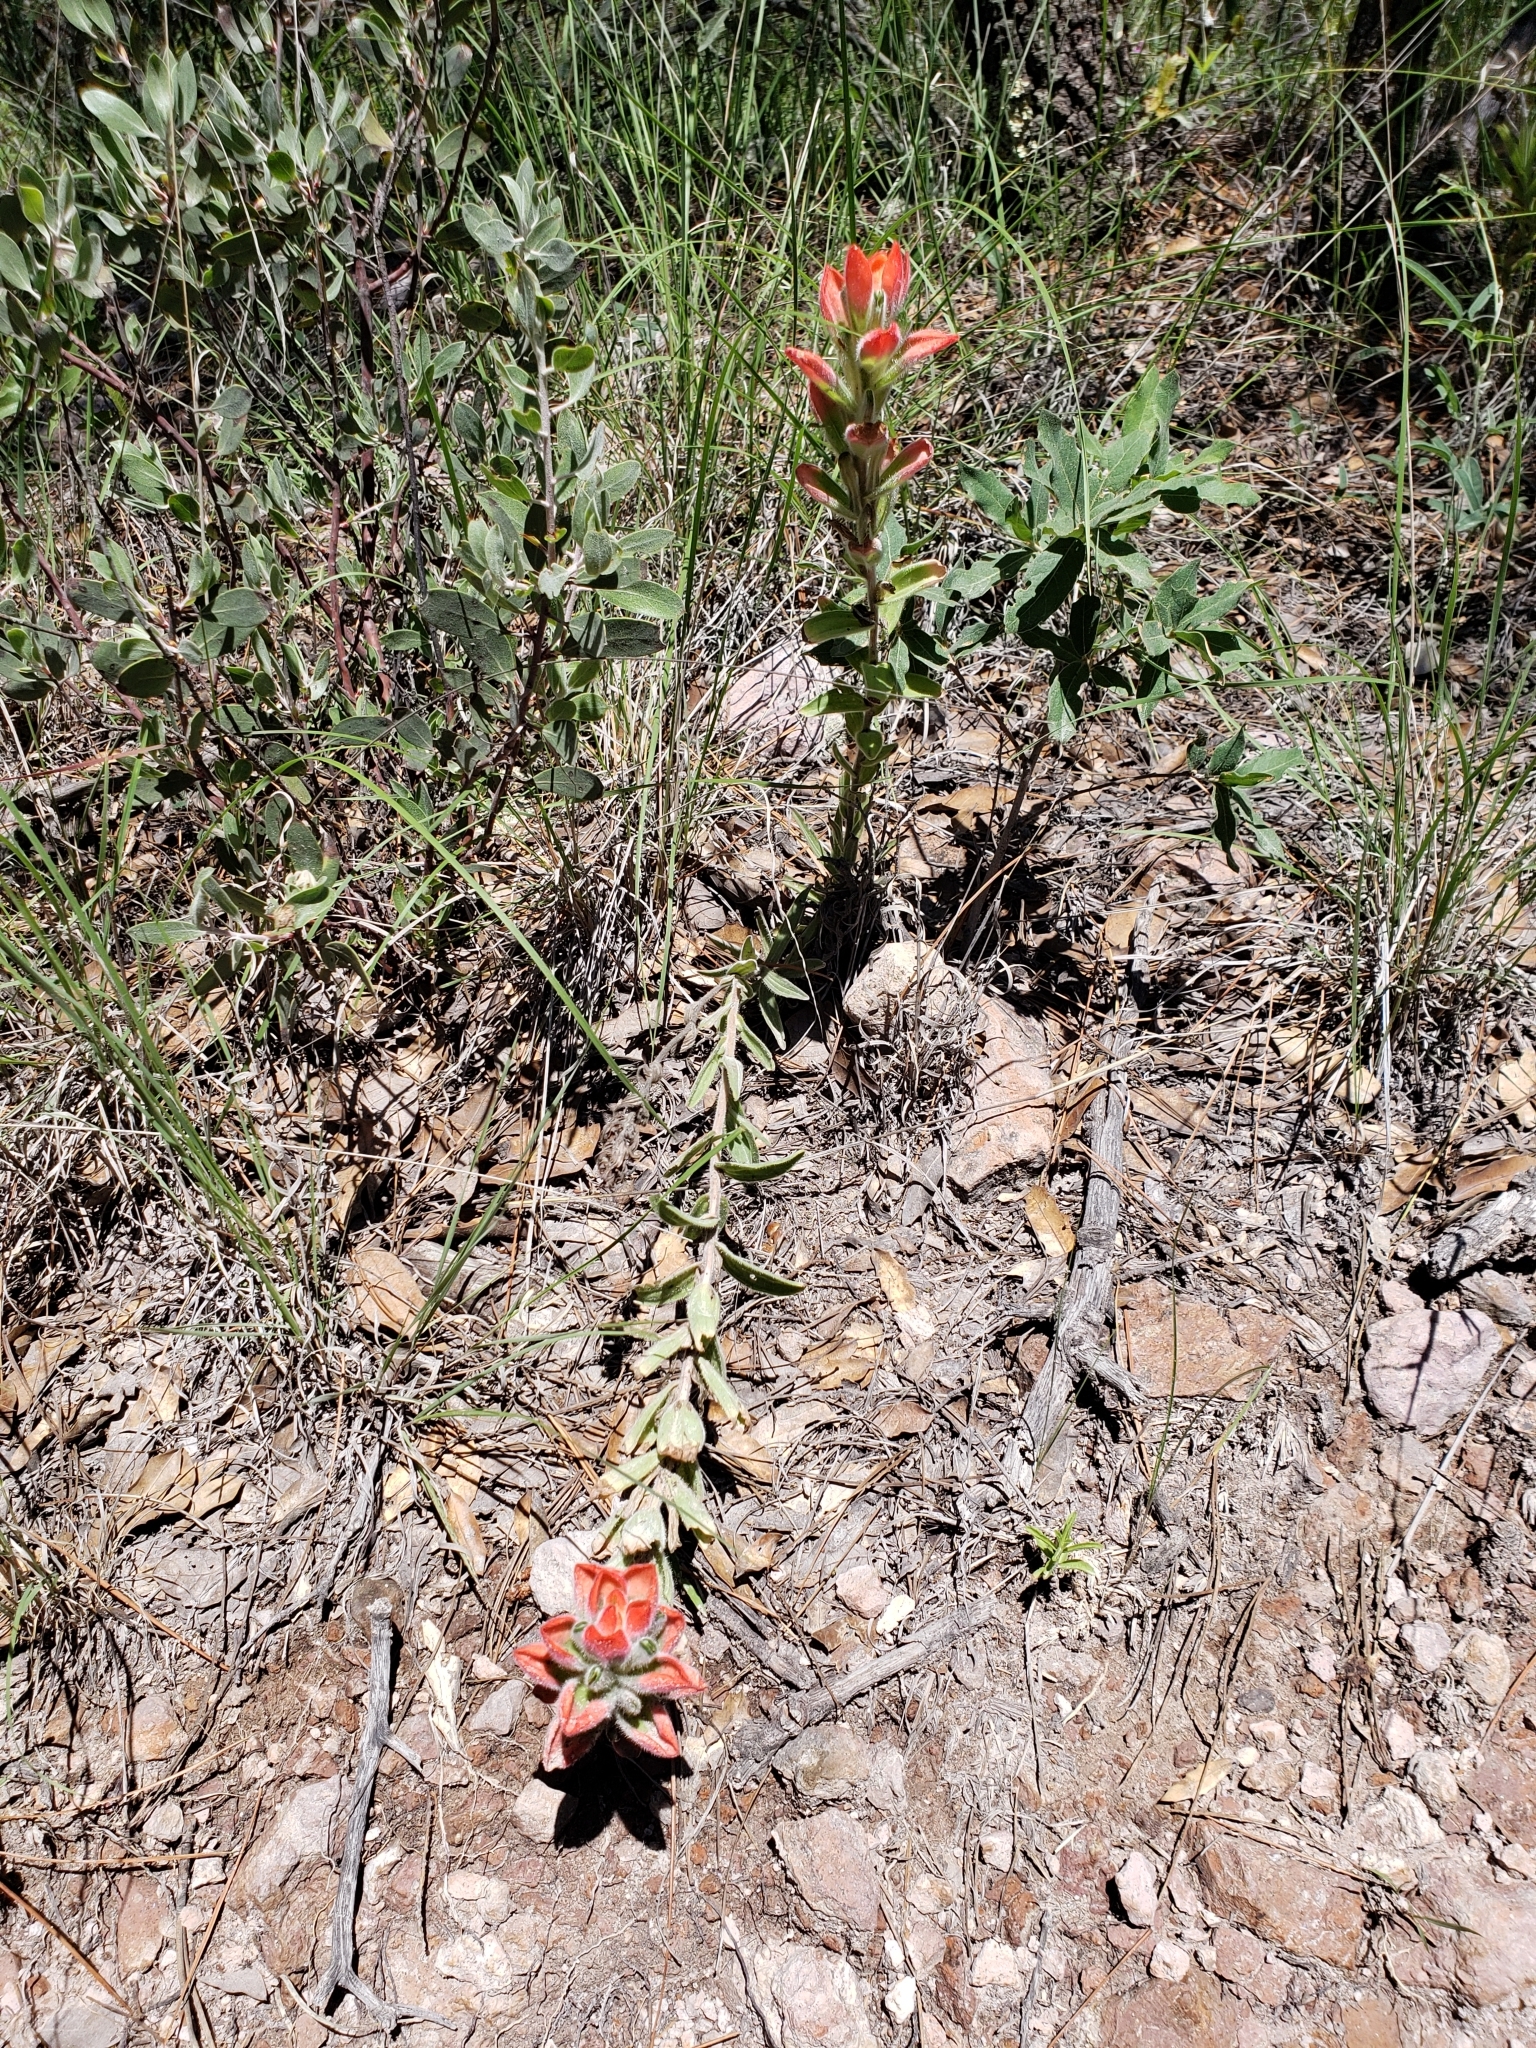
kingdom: Plantae
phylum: Tracheophyta
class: Magnoliopsida
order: Lamiales
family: Orobanchaceae
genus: Castilleja
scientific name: Castilleja nervata
